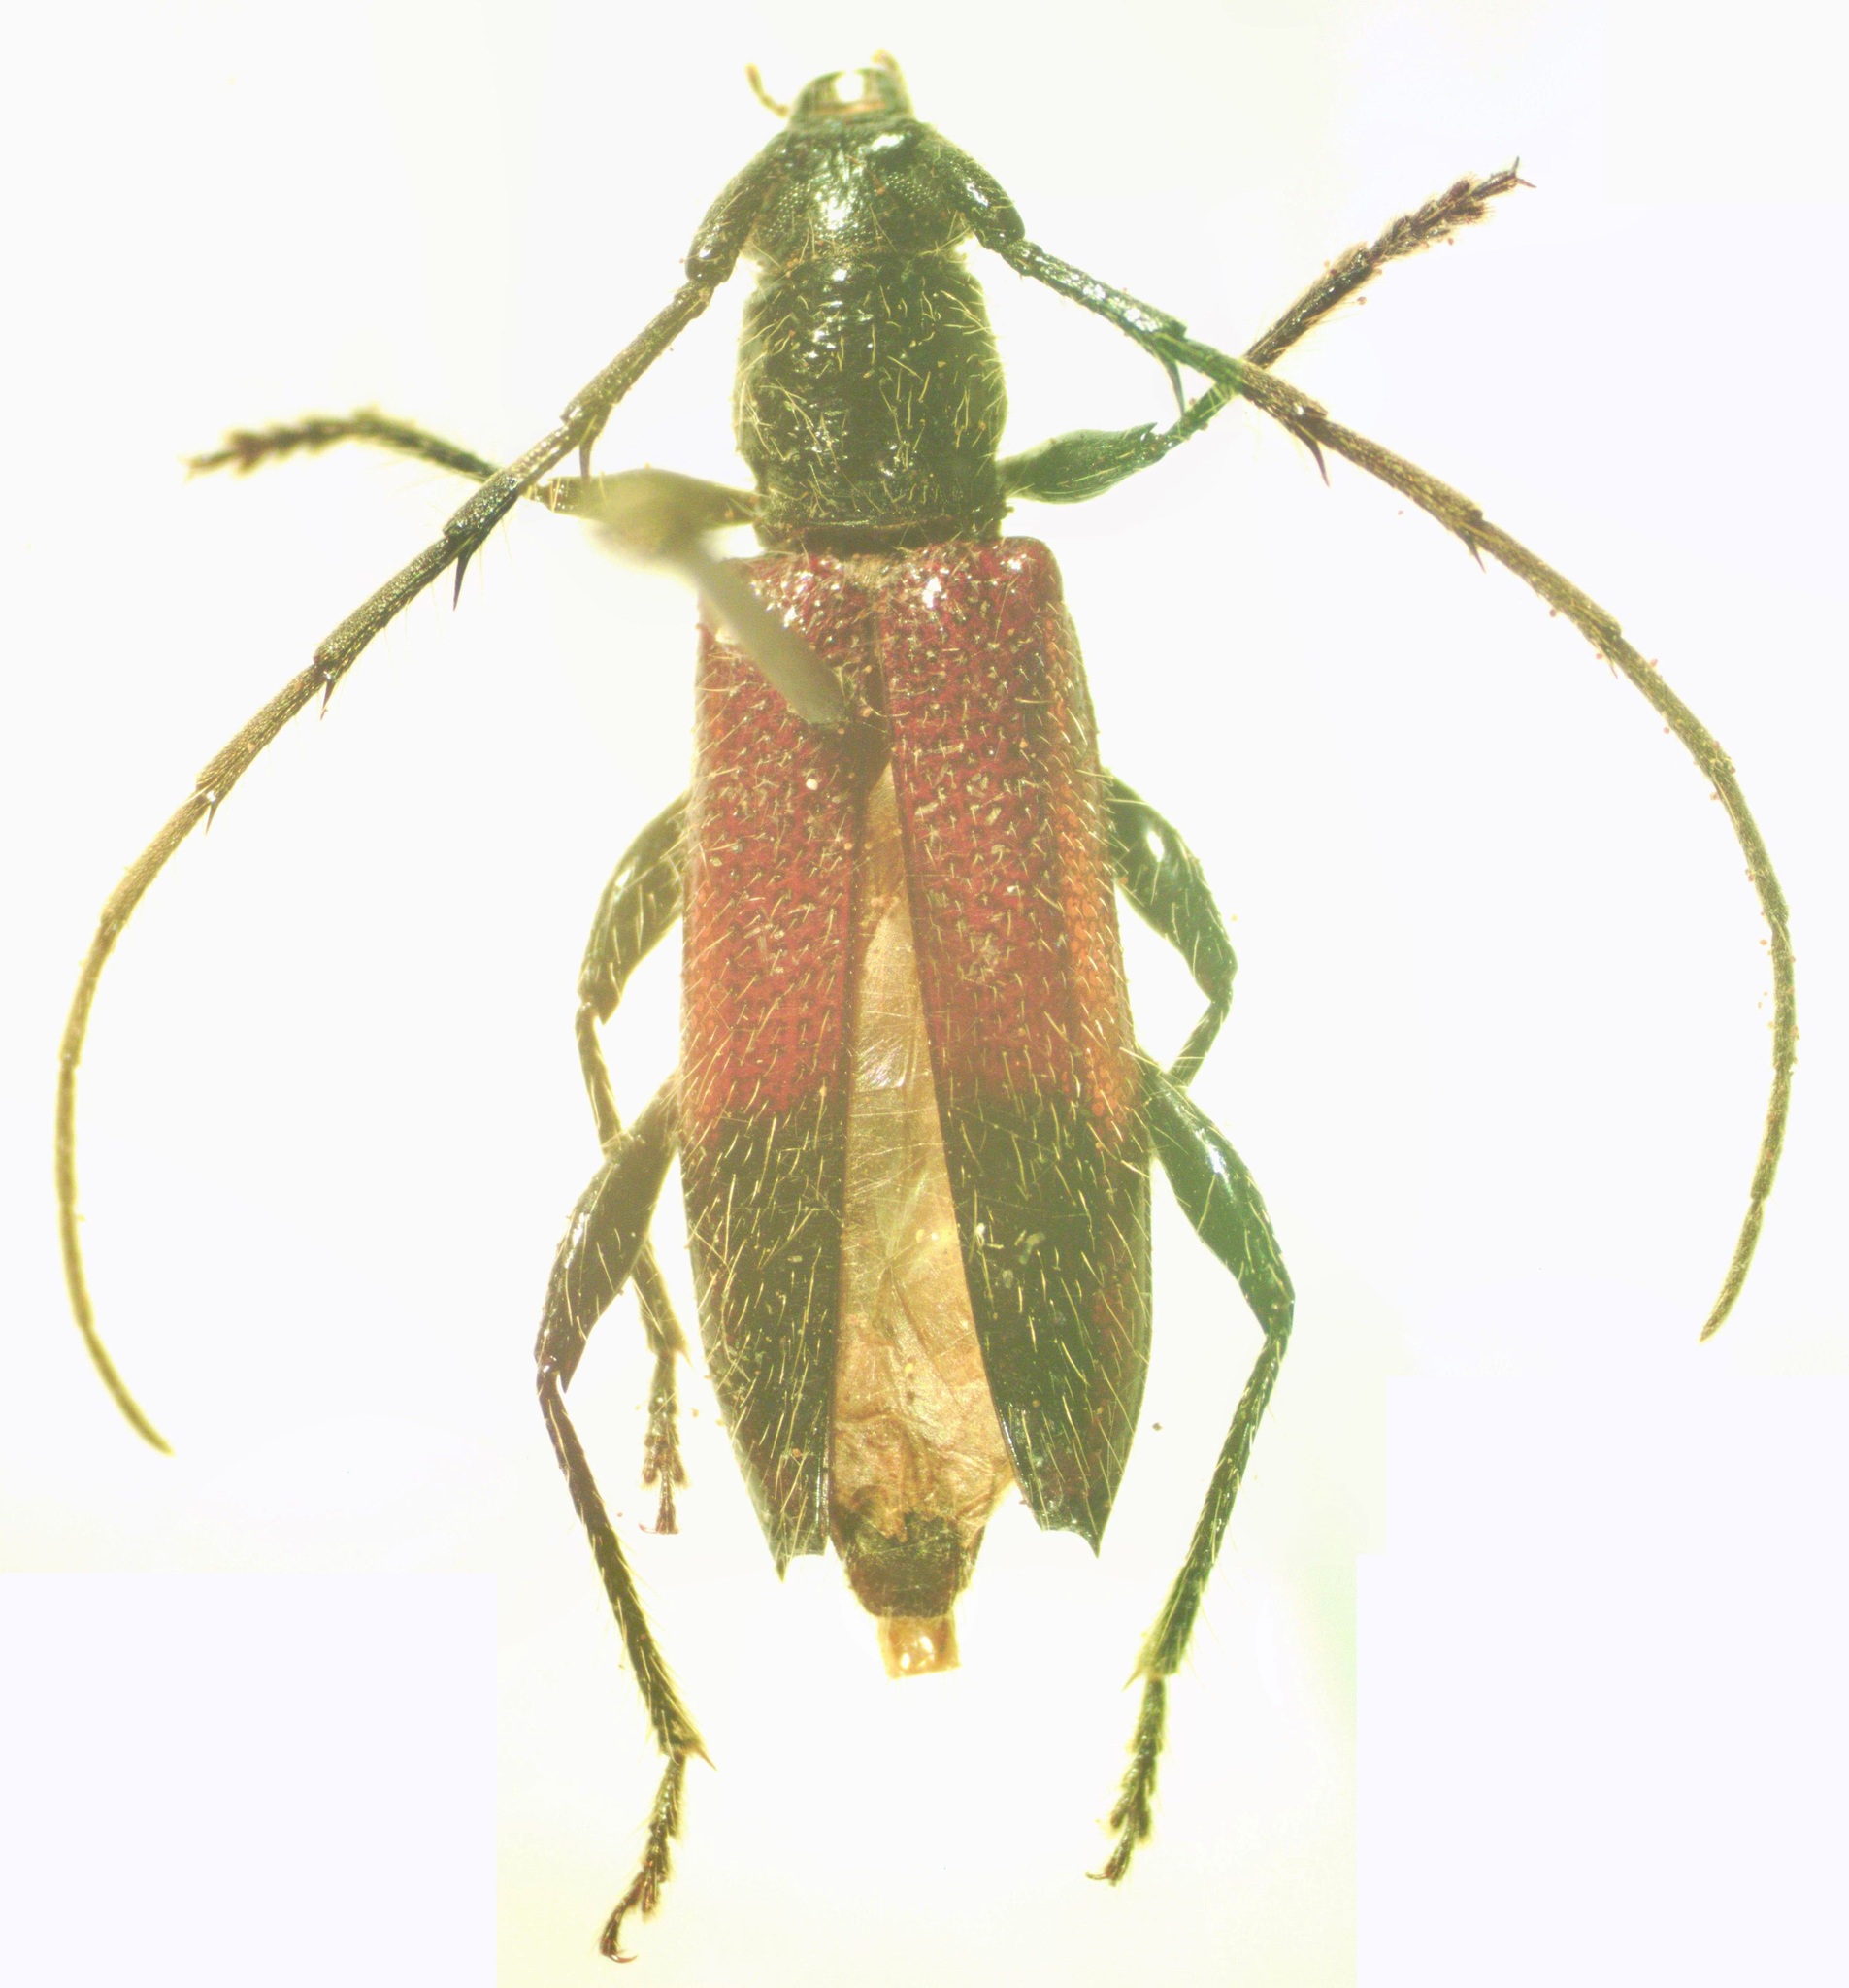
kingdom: Animalia
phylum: Arthropoda
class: Insecta
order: Coleoptera
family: Cerambycidae
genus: Stizocera
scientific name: Stizocera rugicollis
